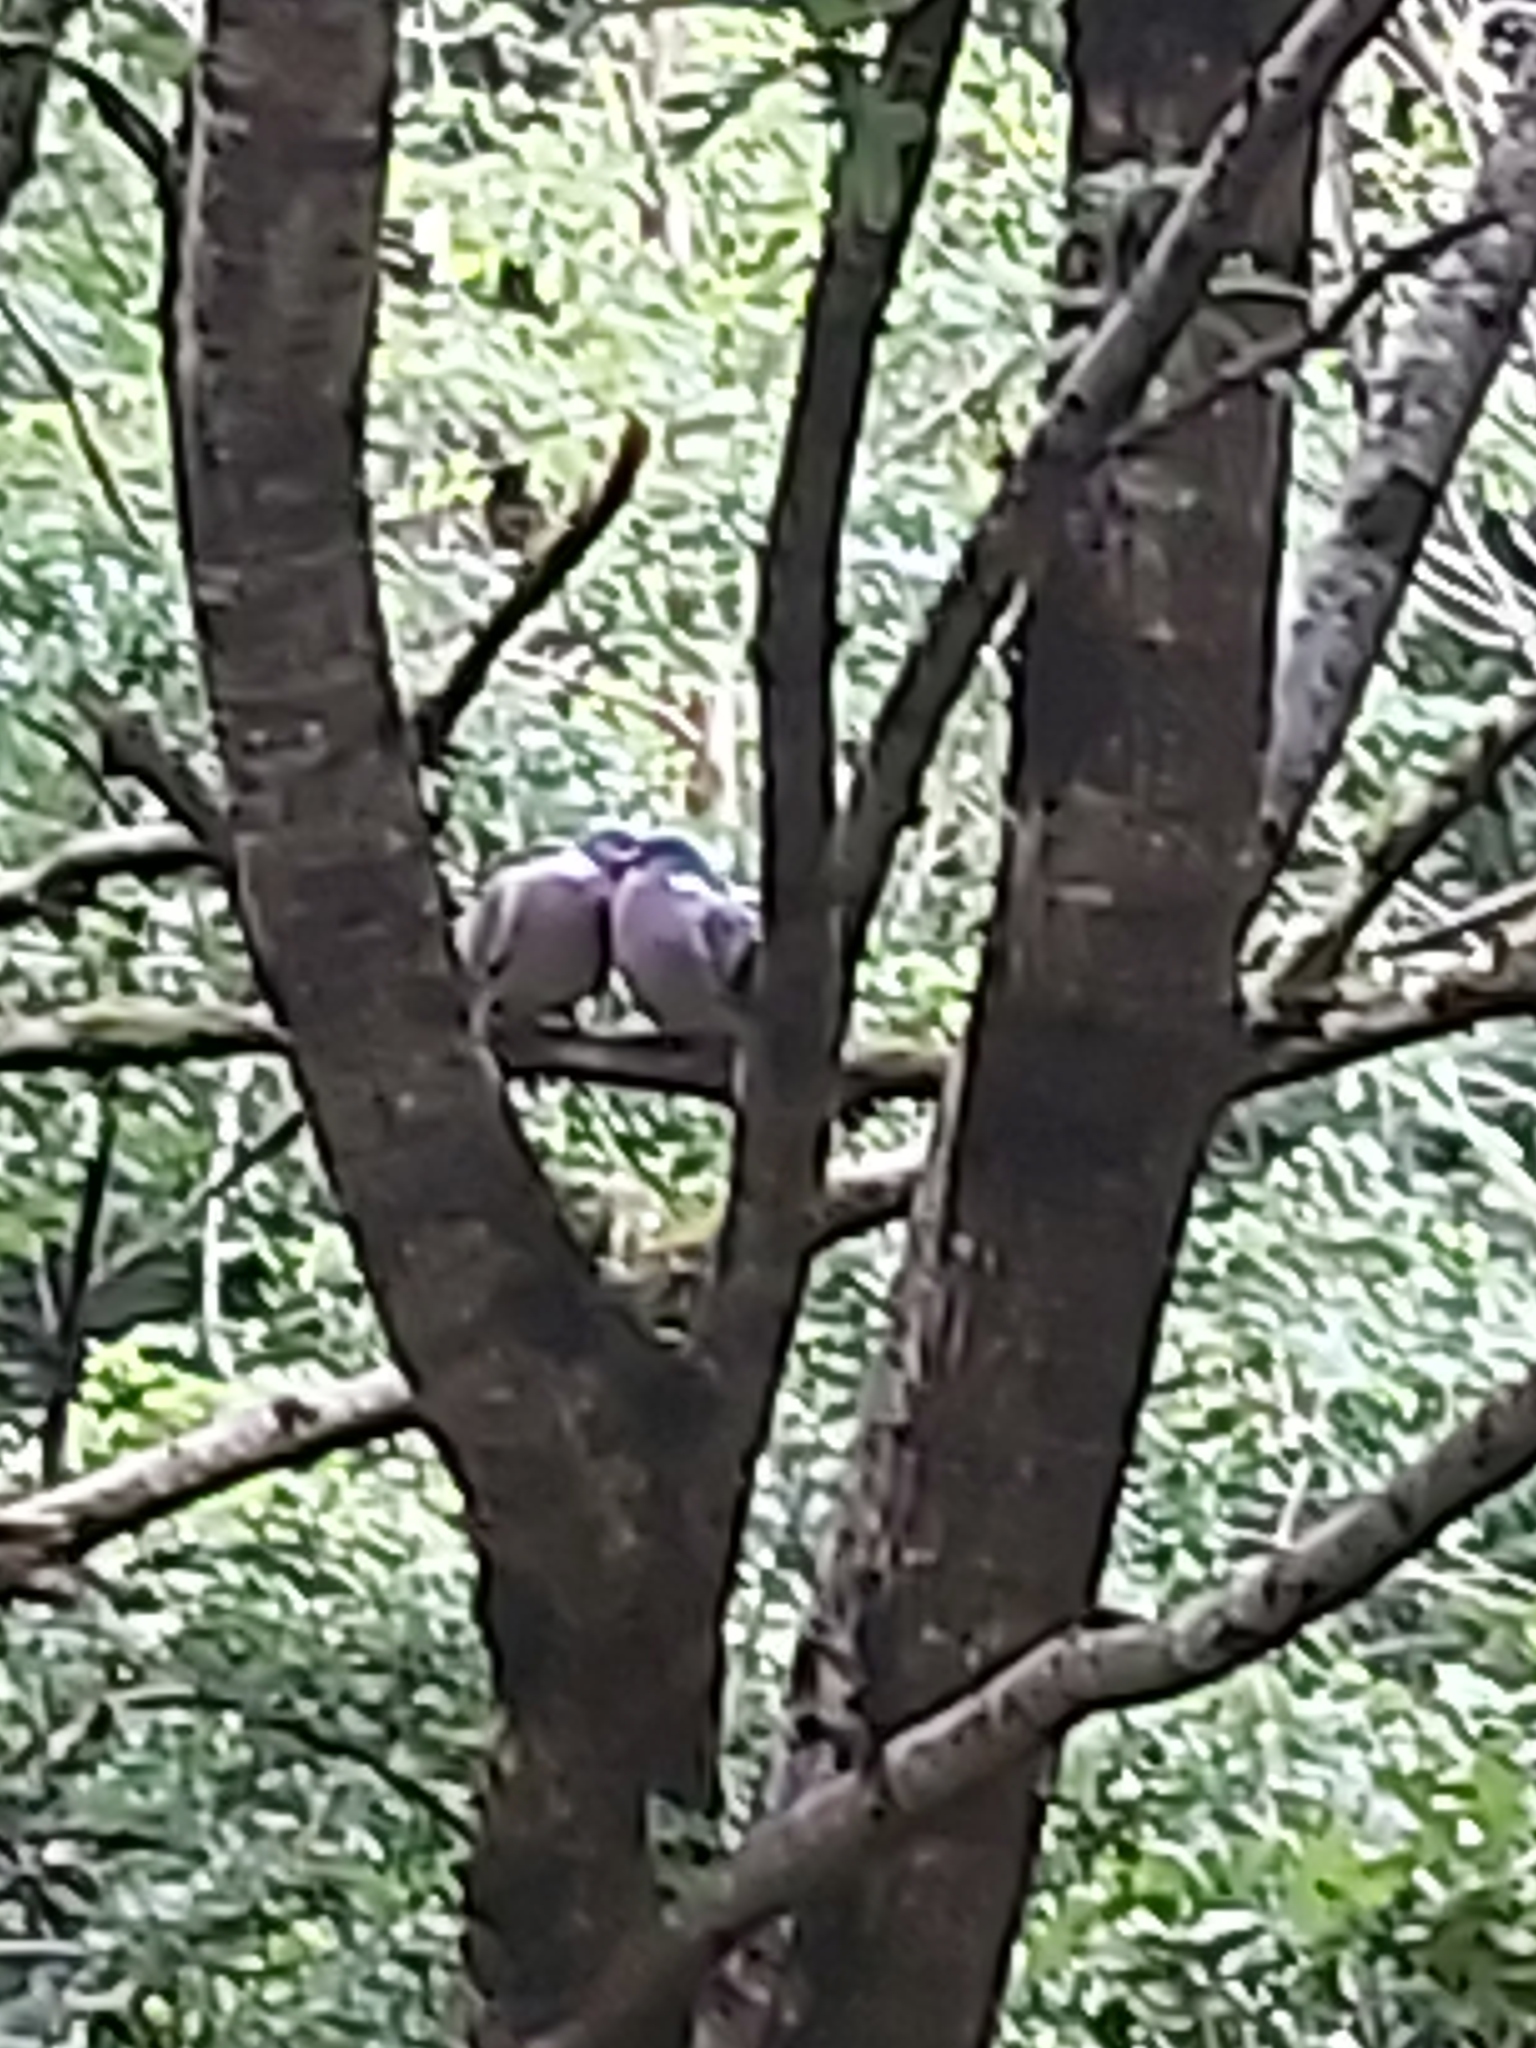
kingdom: Animalia
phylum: Chordata
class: Aves
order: Columbiformes
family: Columbidae
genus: Columba
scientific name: Columba palumbus
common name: Common wood pigeon
